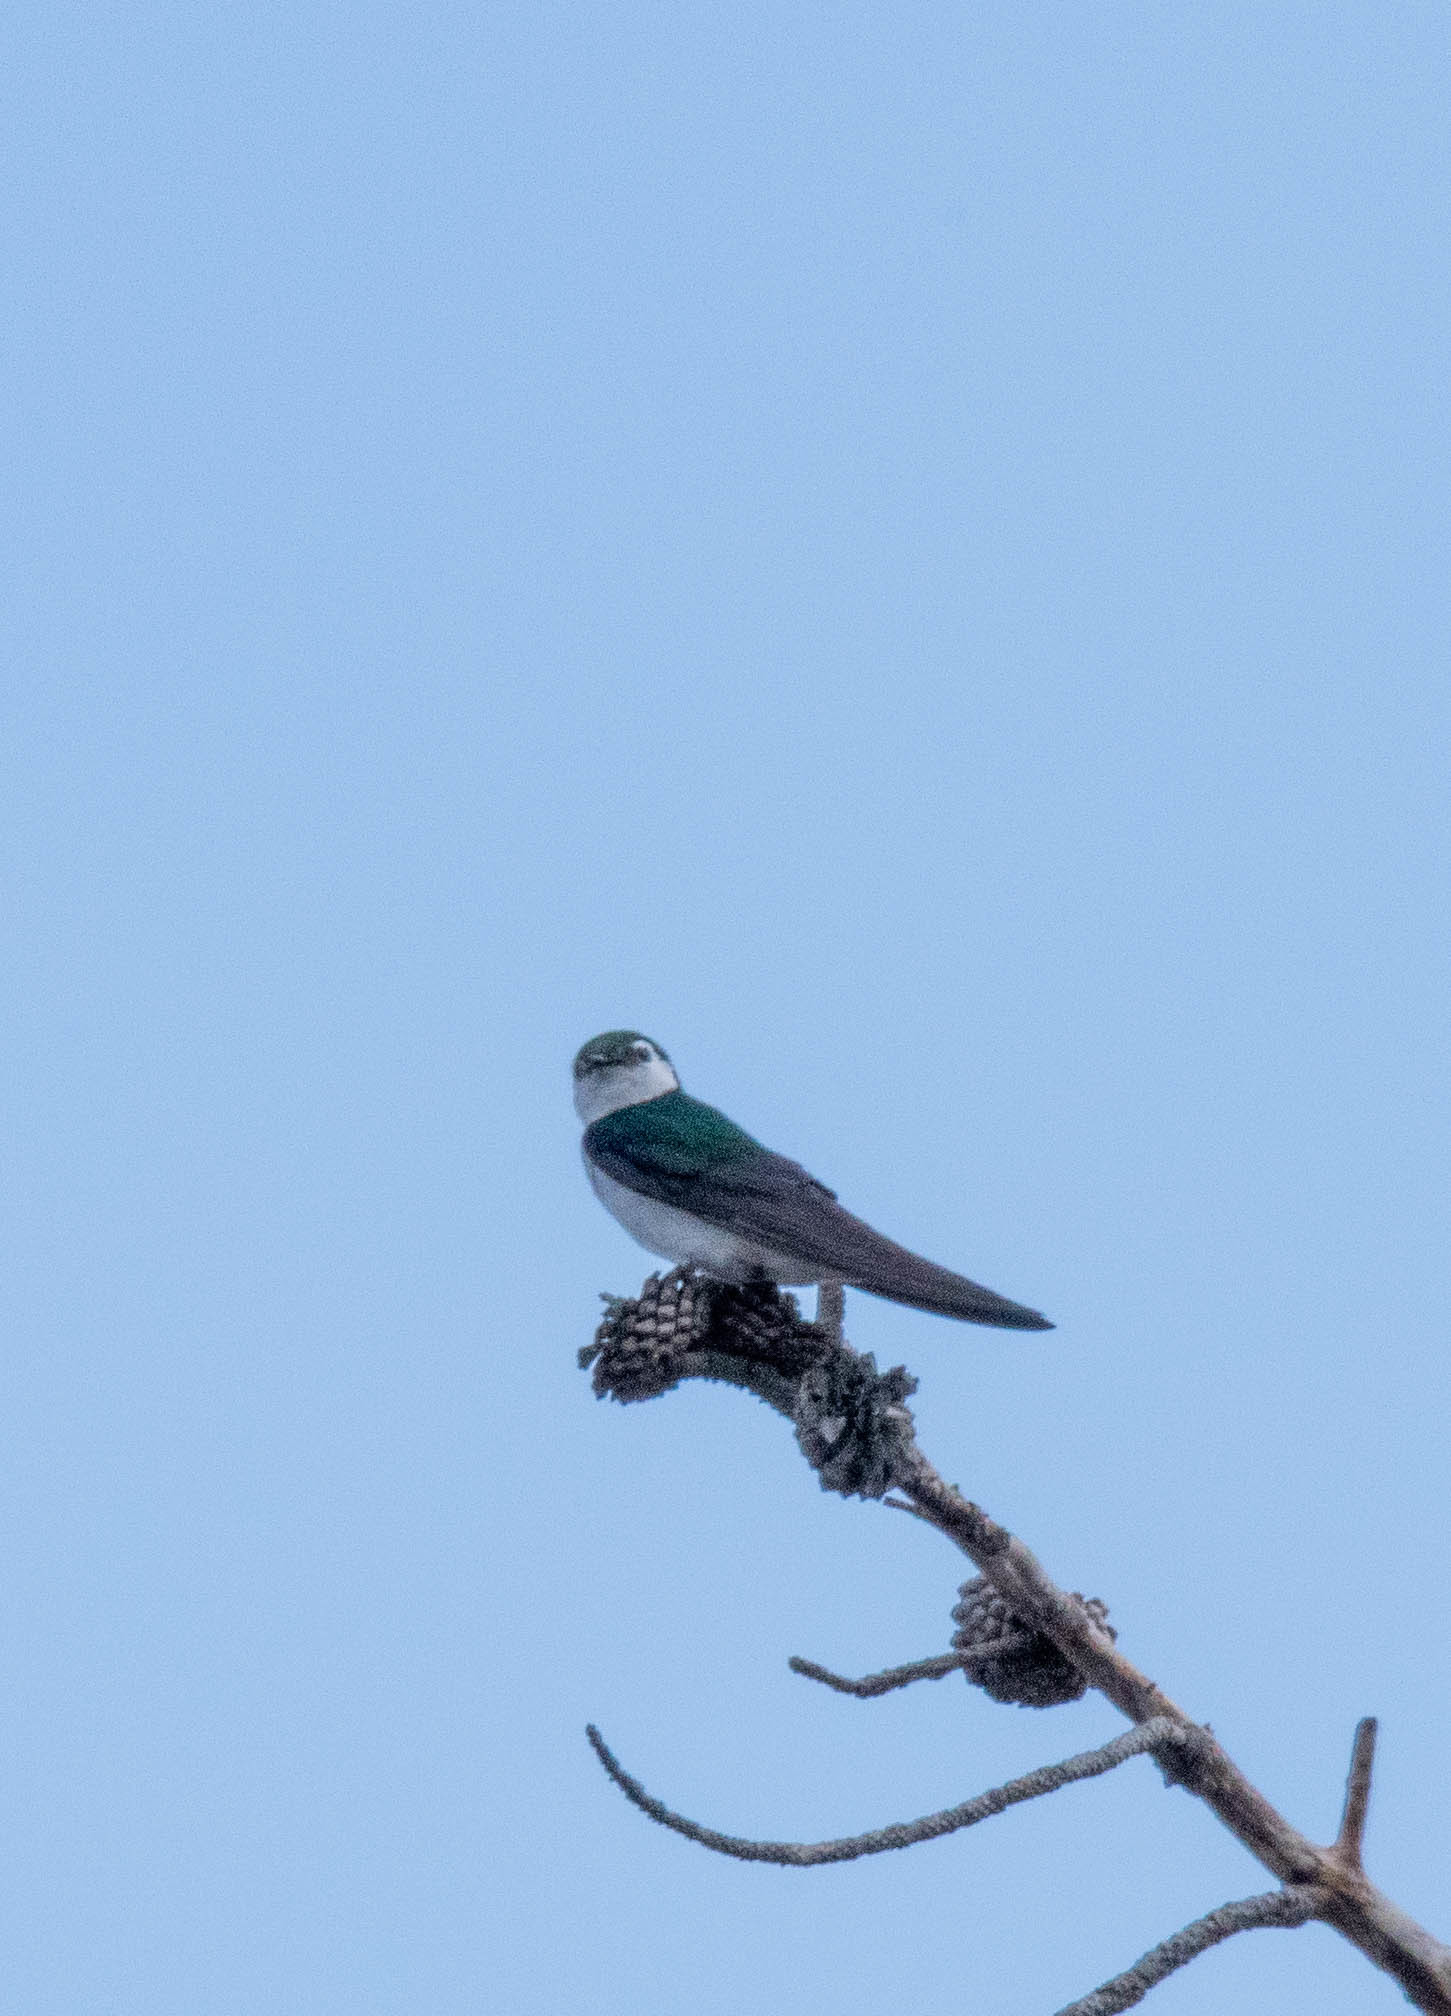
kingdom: Animalia
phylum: Chordata
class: Aves
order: Passeriformes
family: Hirundinidae
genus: Tachycineta
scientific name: Tachycineta thalassina
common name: Violet-green swallow
